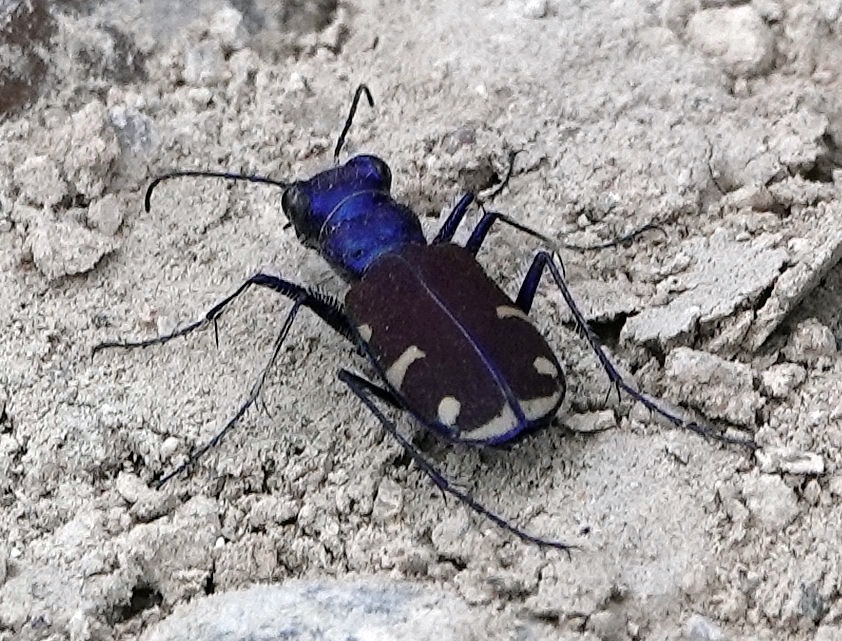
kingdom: Animalia
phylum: Arthropoda
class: Insecta
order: Coleoptera
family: Carabidae
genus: Cicindela
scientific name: Cicindela splendida
